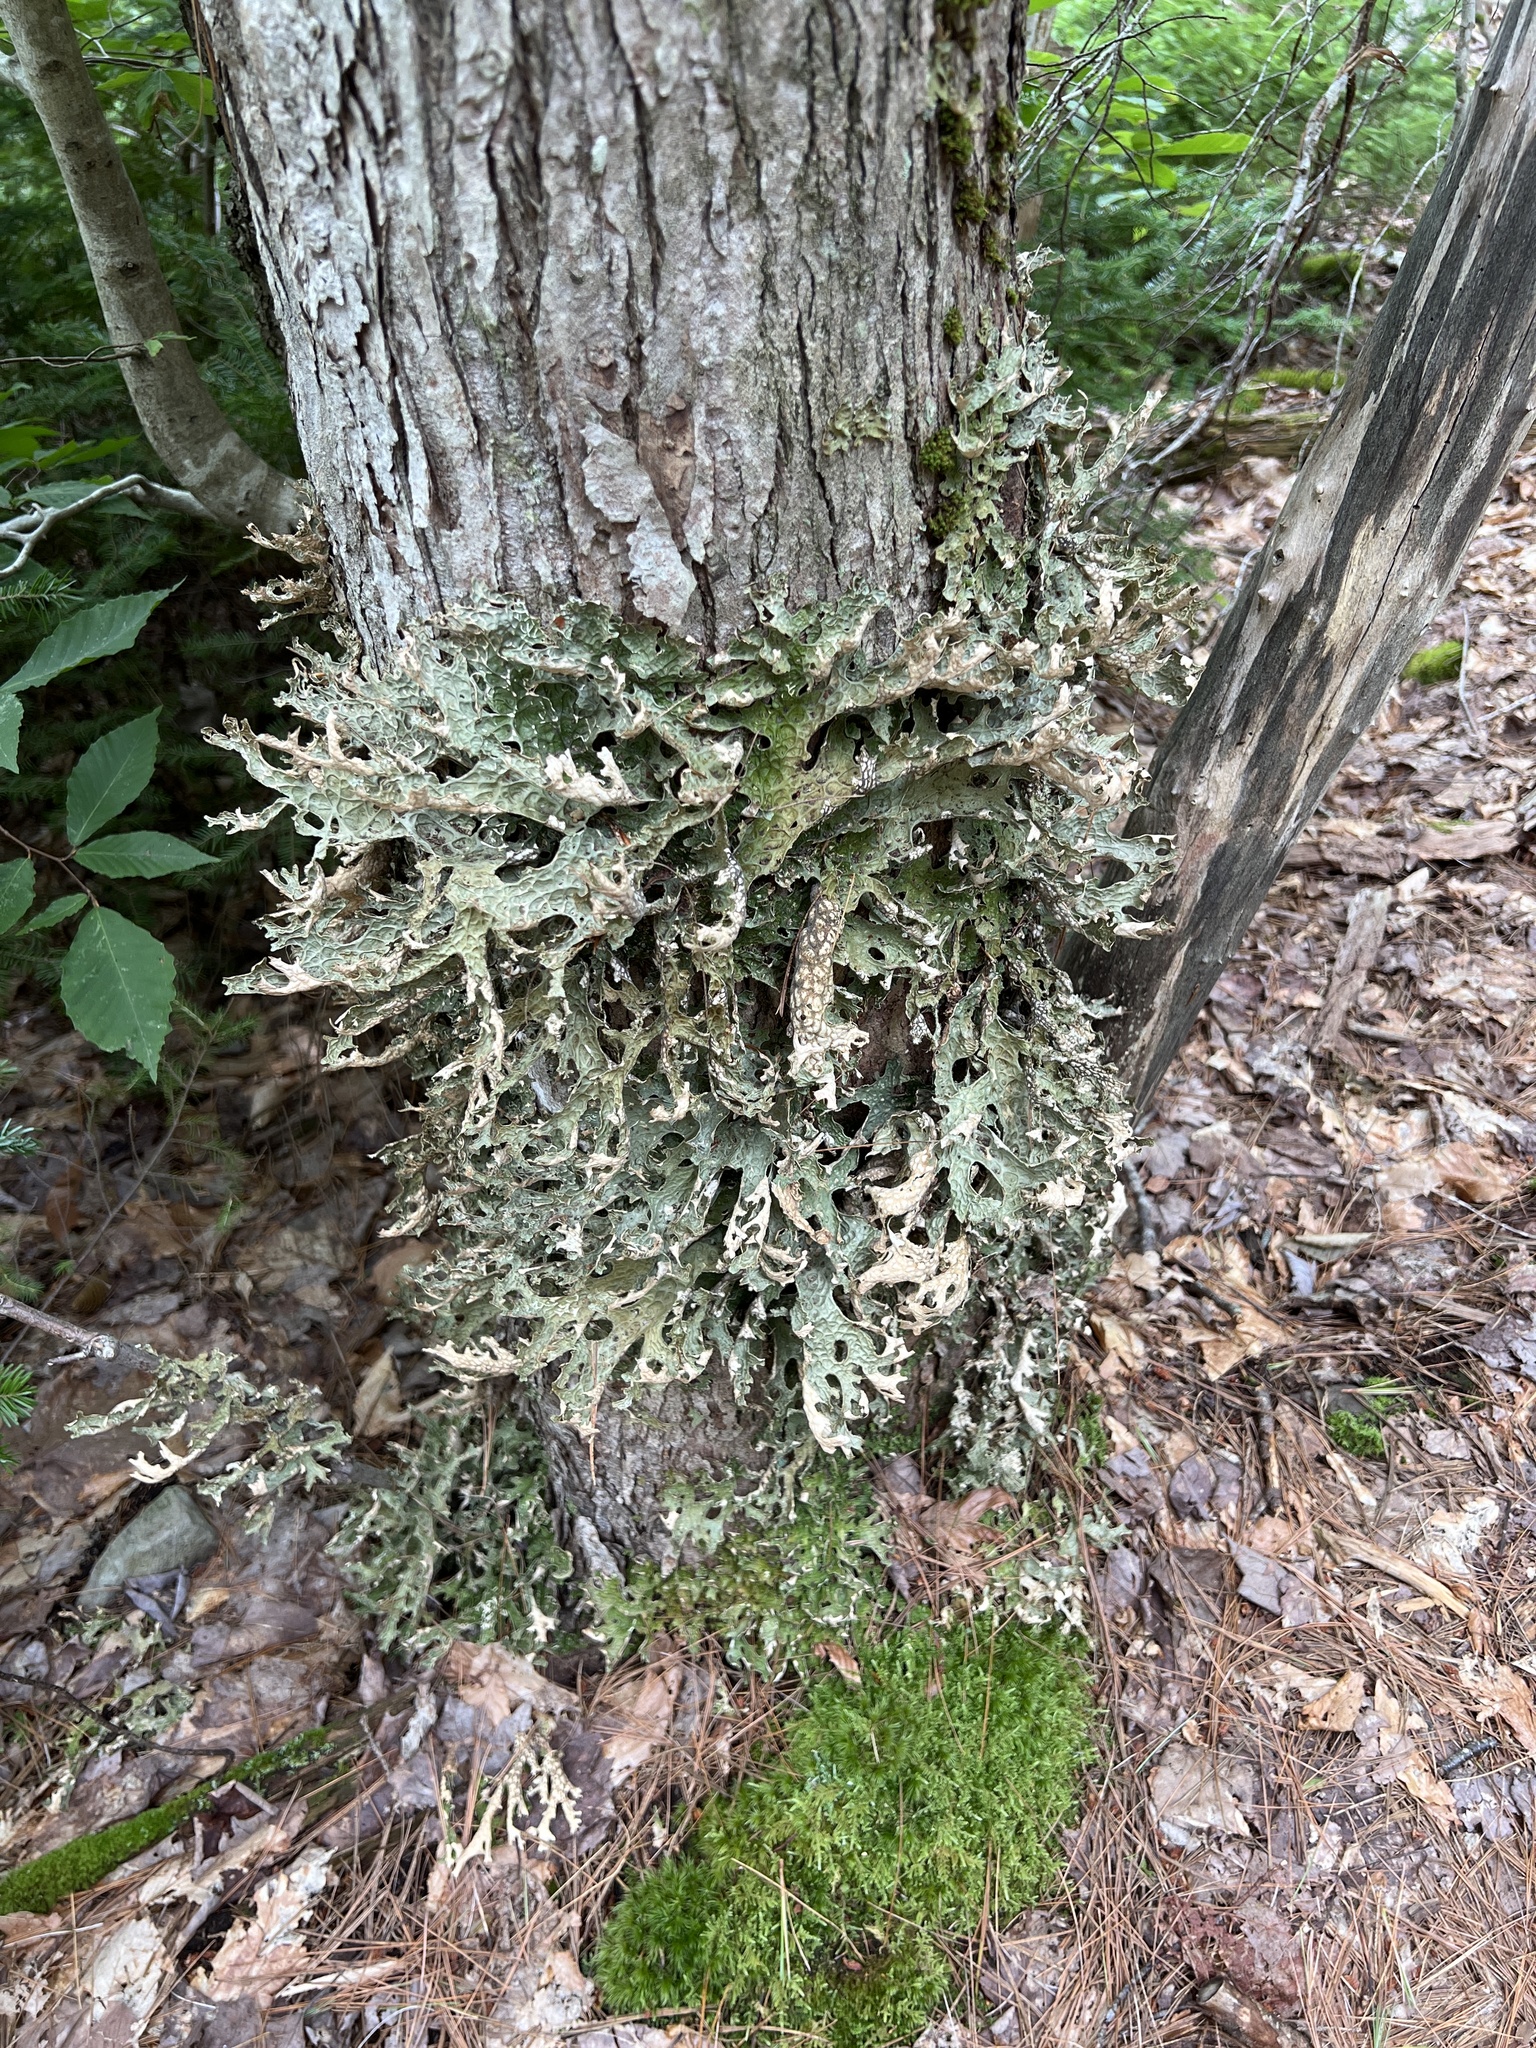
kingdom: Fungi
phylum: Ascomycota
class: Lecanoromycetes
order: Peltigerales
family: Lobariaceae
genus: Lobaria
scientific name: Lobaria pulmonaria
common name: Lungwort
